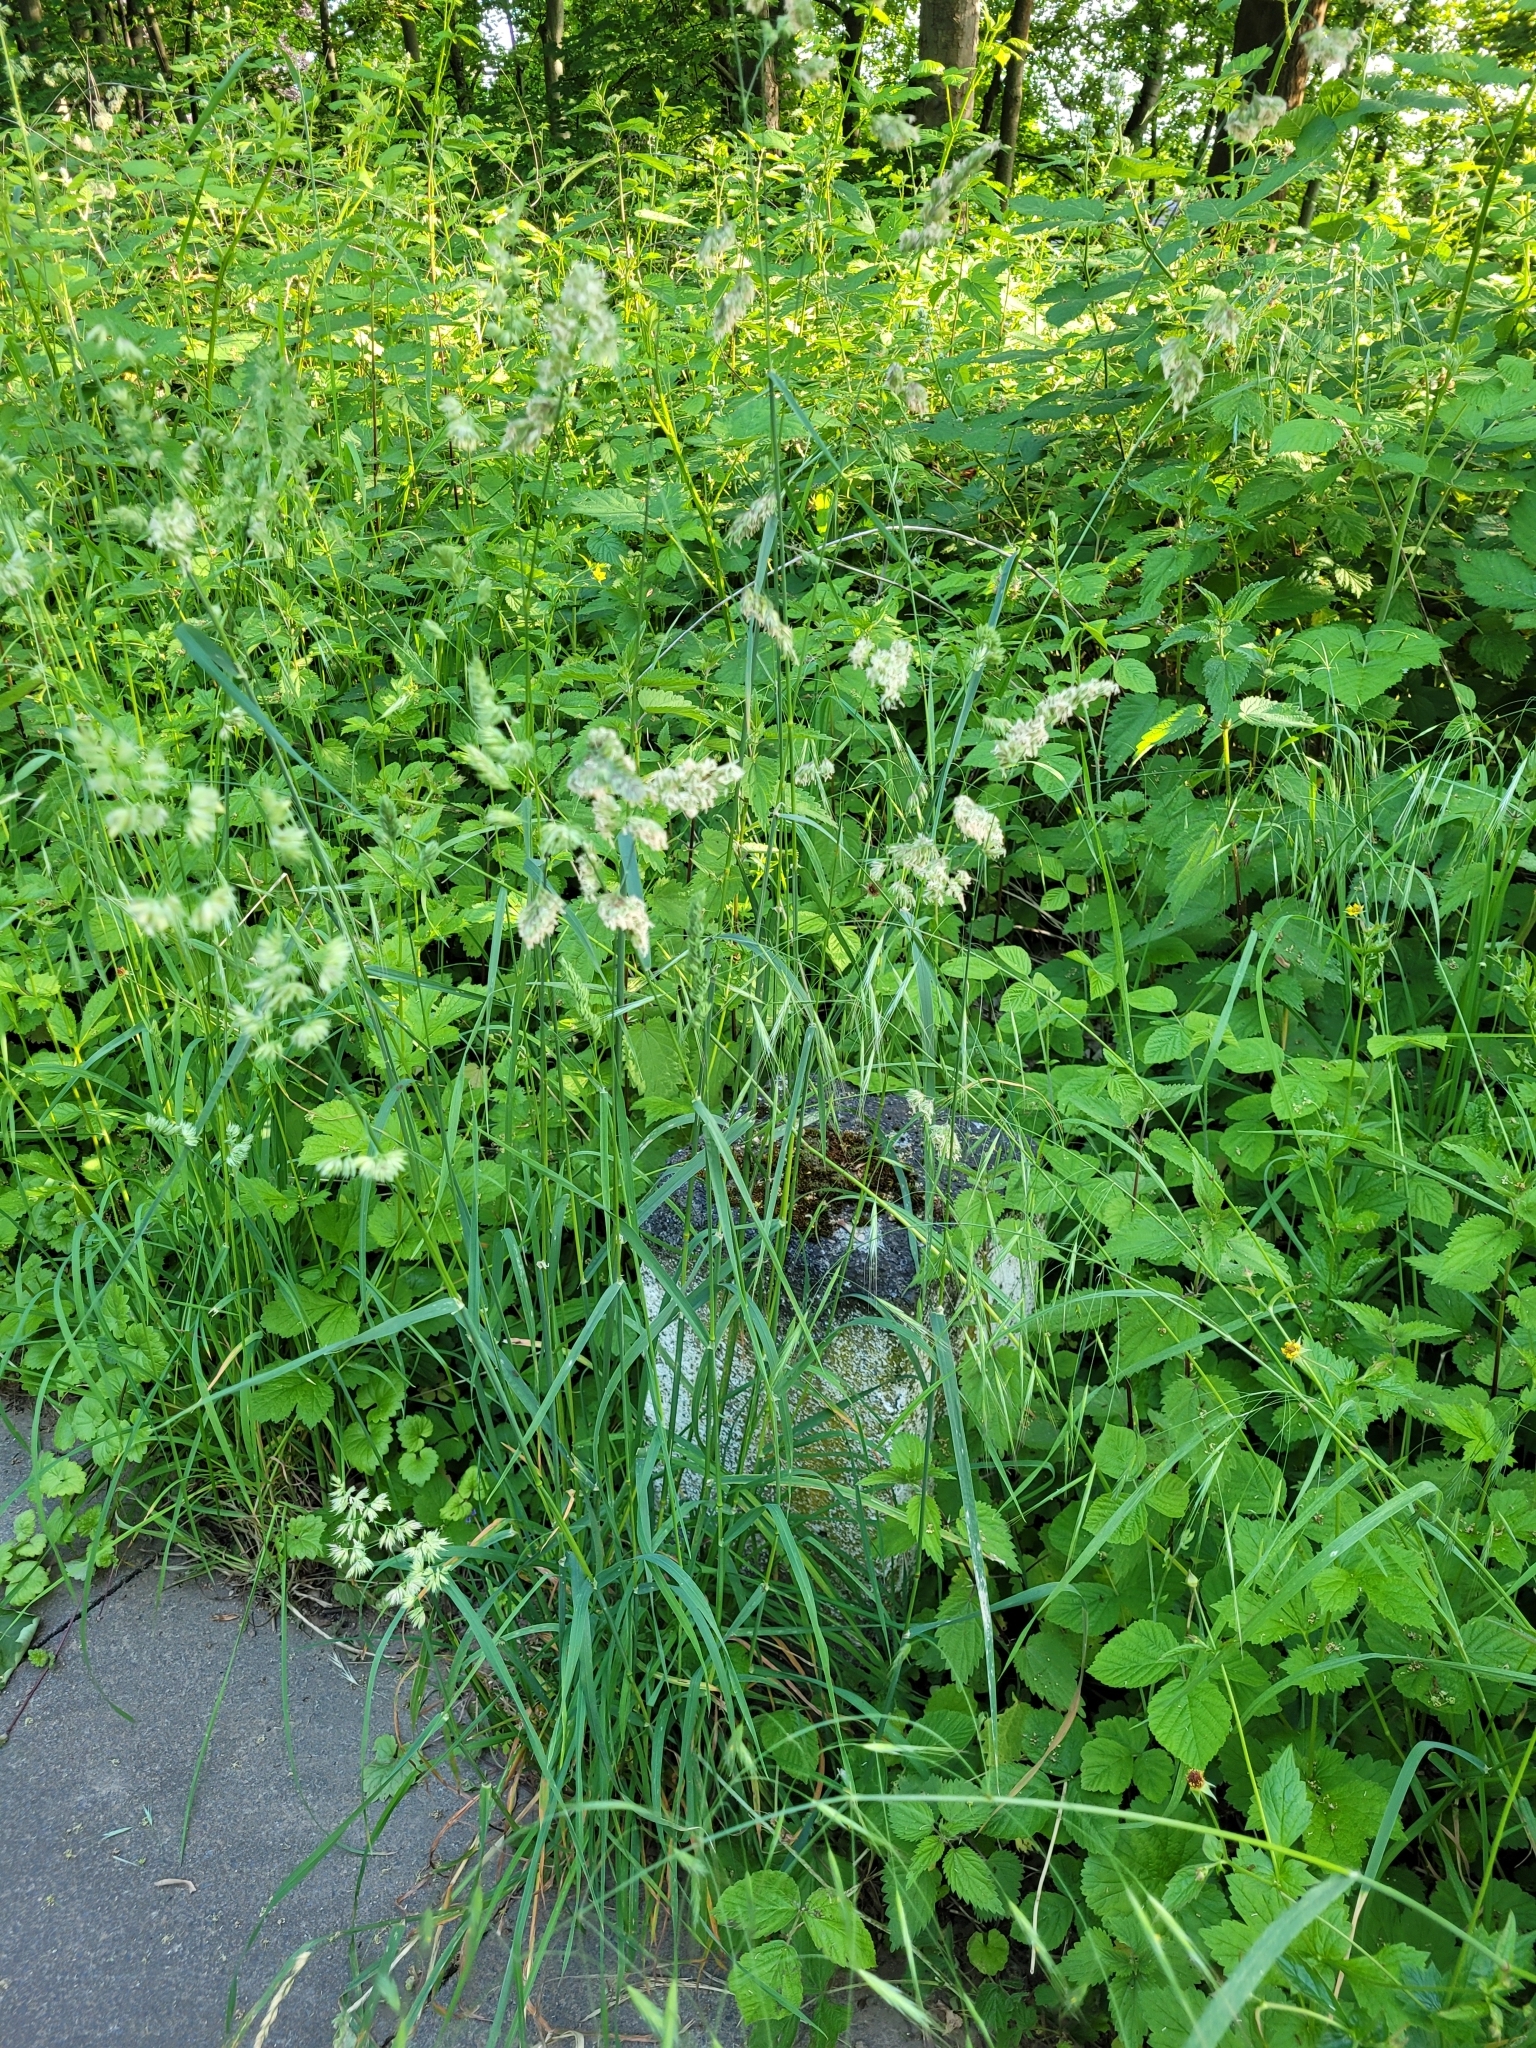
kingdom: Plantae
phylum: Tracheophyta
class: Liliopsida
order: Poales
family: Poaceae
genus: Dactylis
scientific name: Dactylis glomerata
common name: Orchardgrass
